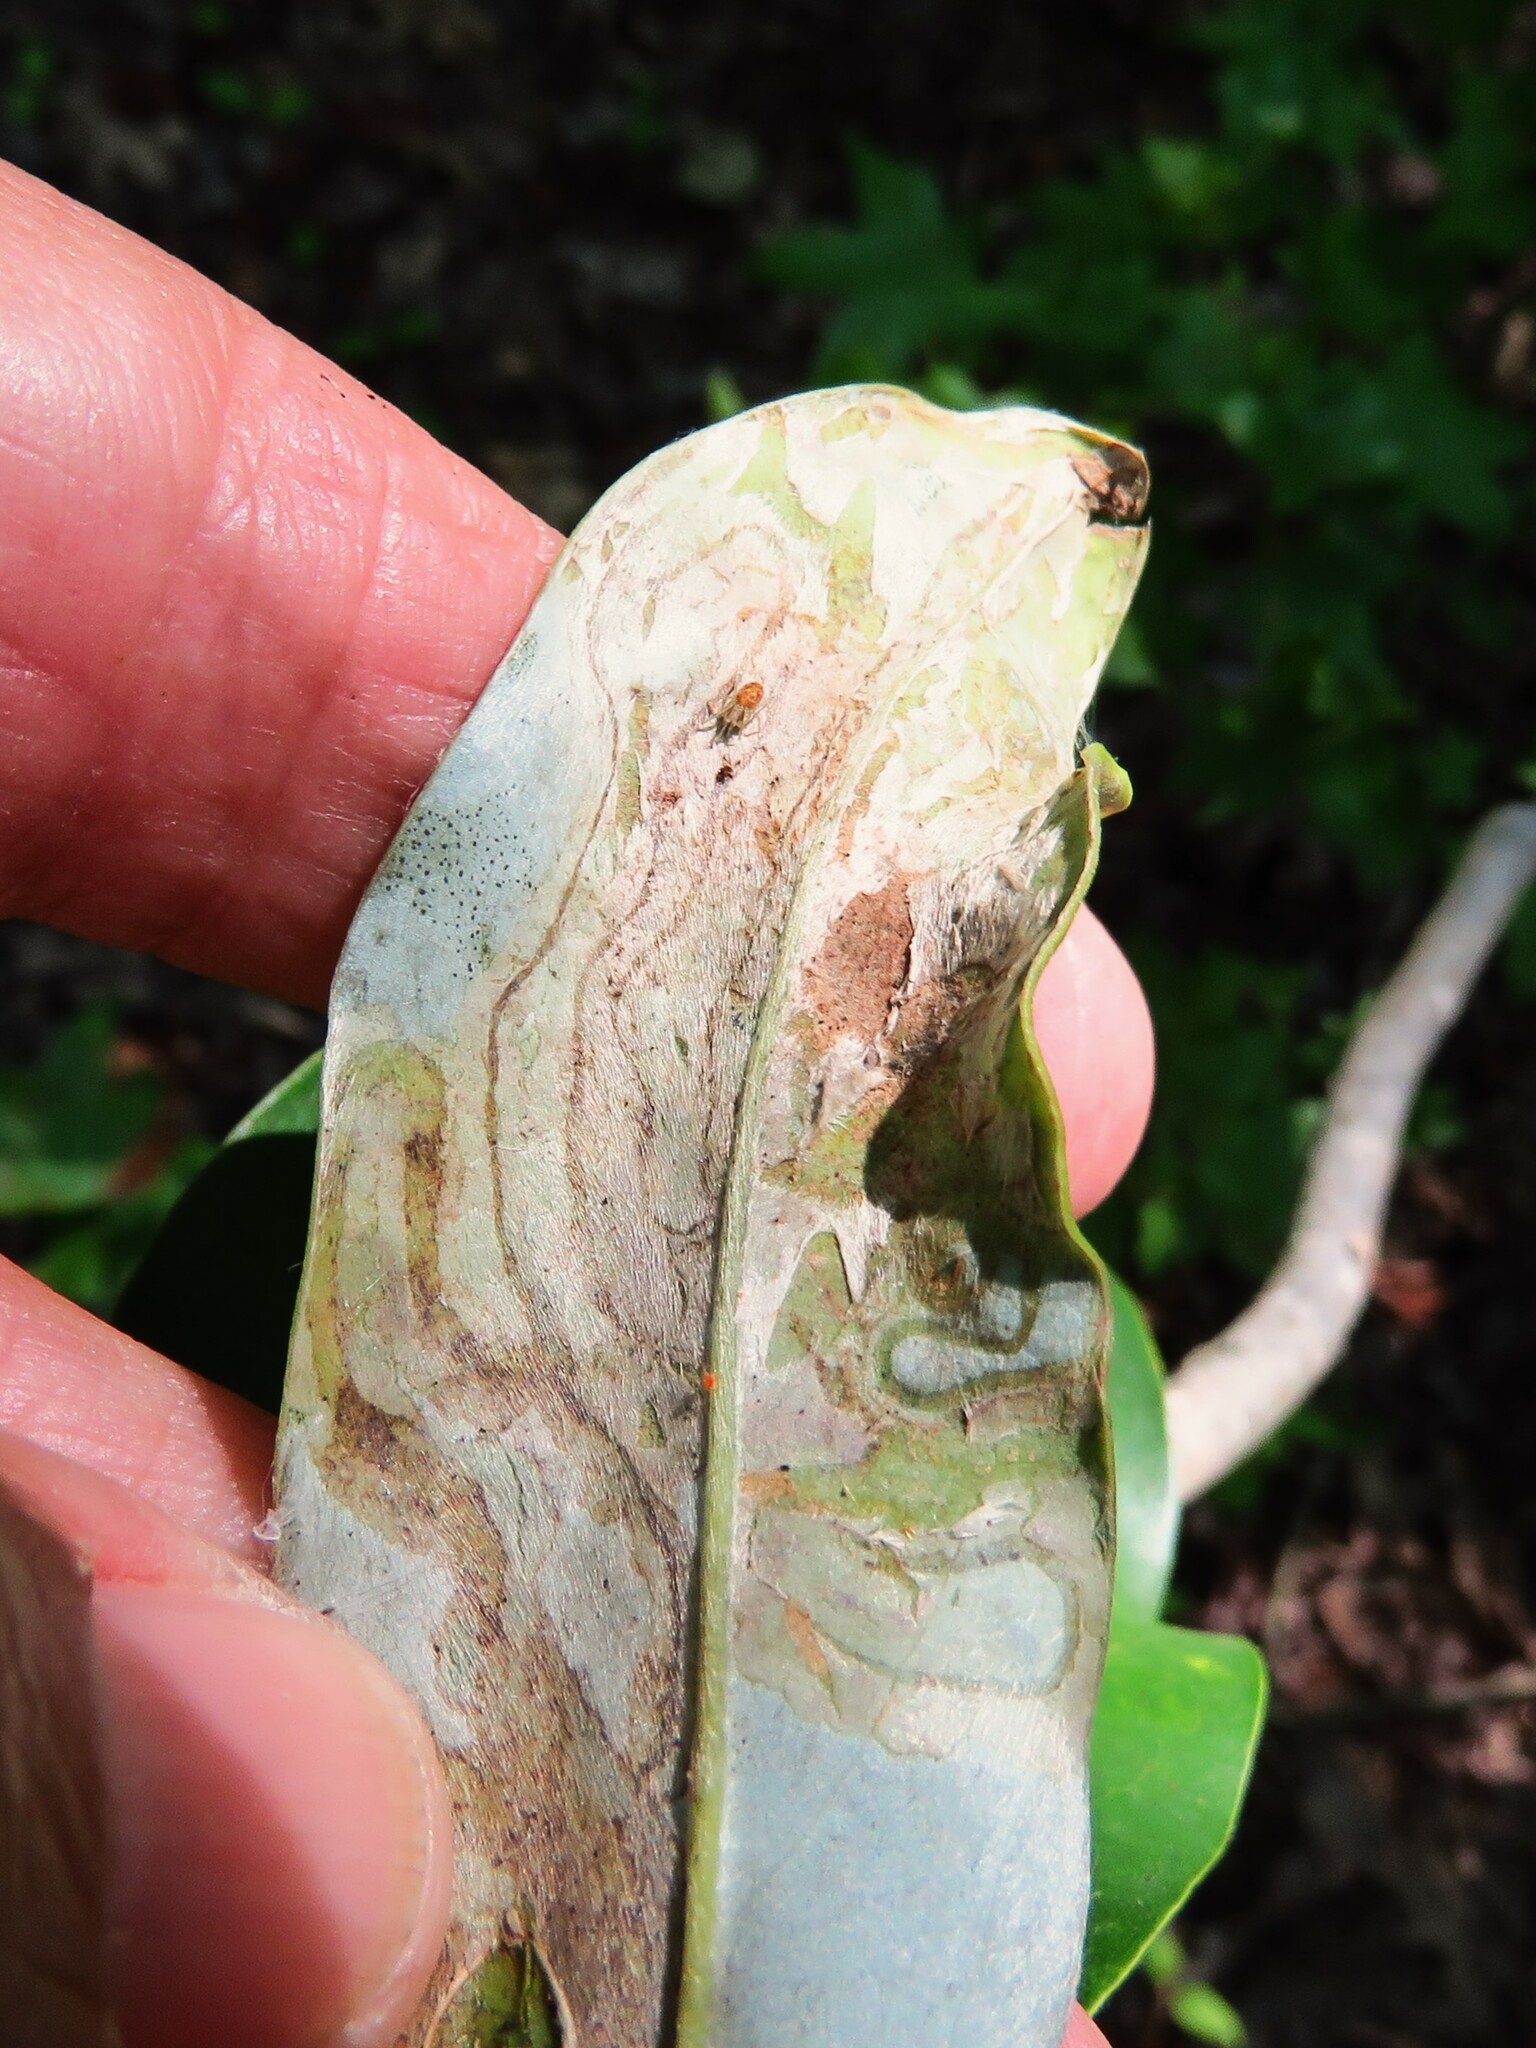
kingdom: Animalia
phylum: Arthropoda
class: Insecta
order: Lepidoptera
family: Gracillariidae
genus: Phyllocnistis
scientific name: Phyllocnistis liriodendronella
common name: Tulip tree leaf miner
